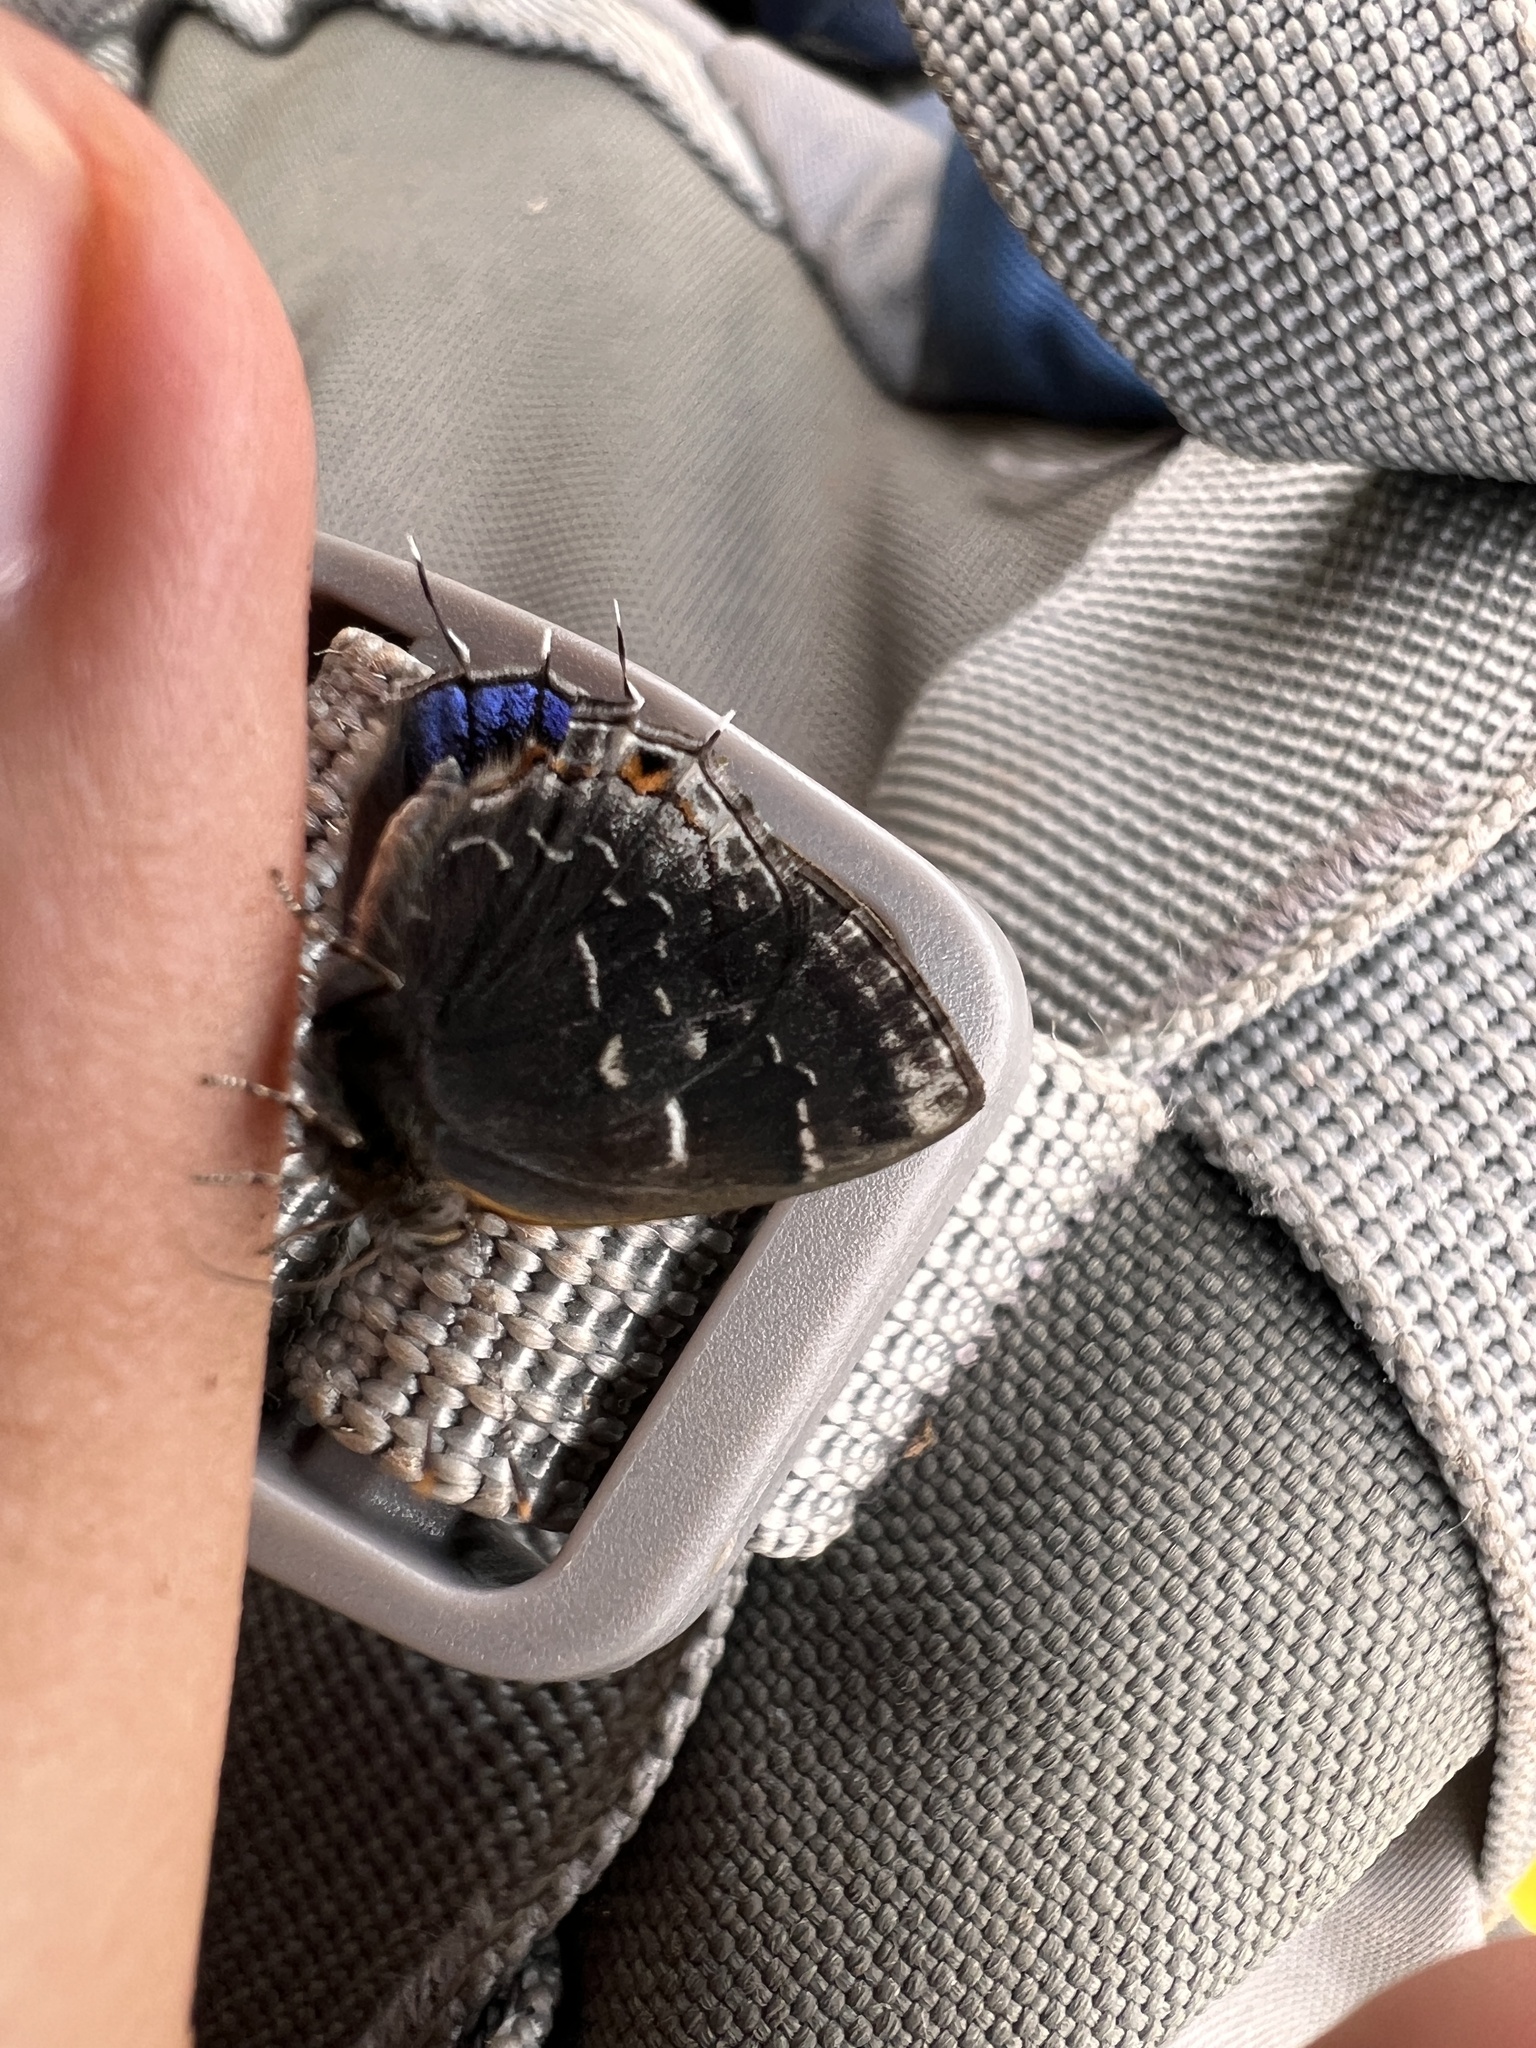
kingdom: Animalia
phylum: Arthropoda
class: Insecta
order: Lepidoptera
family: Lycaenidae
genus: Ocaria
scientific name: Ocaria ocrisia
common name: Black hairstreak
